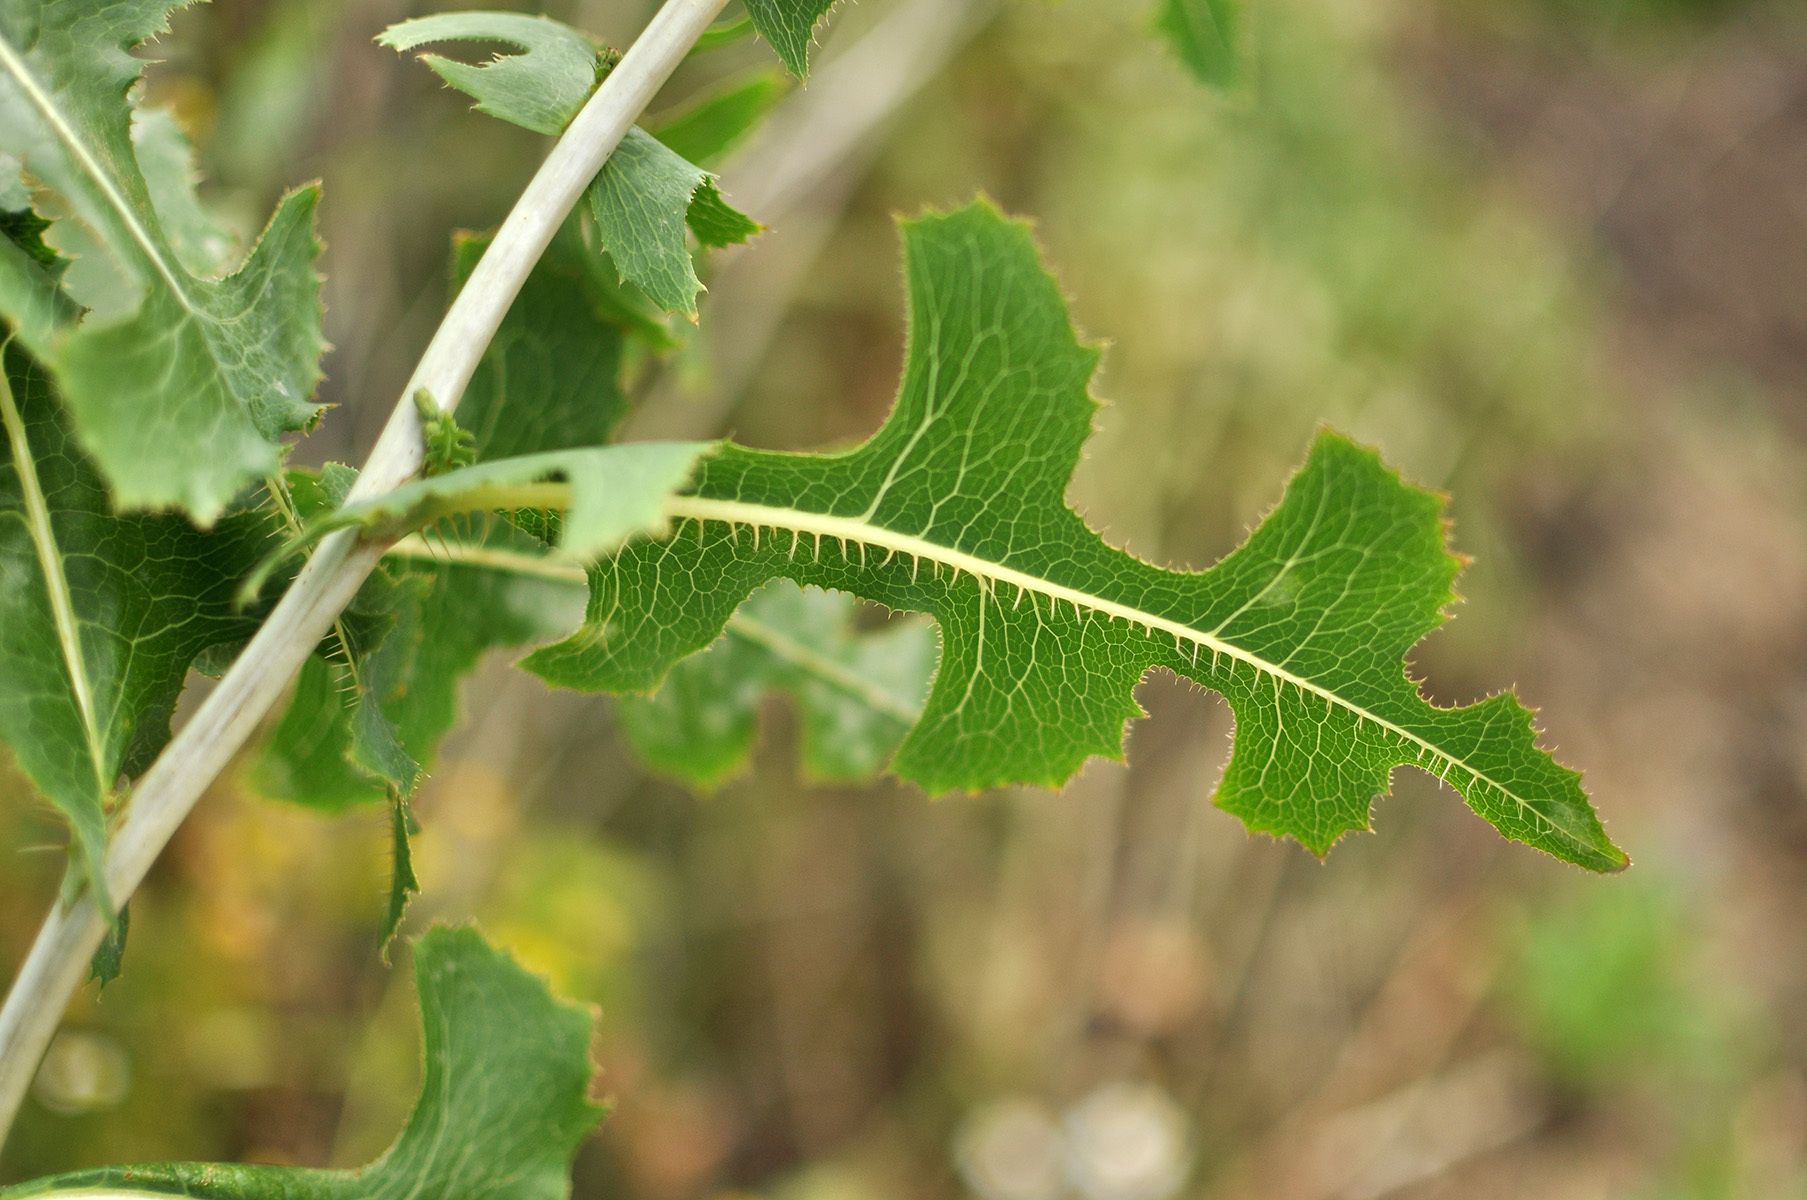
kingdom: Plantae
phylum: Tracheophyta
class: Magnoliopsida
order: Asterales
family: Asteraceae
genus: Lactuca
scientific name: Lactuca serriola
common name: Prickly lettuce
